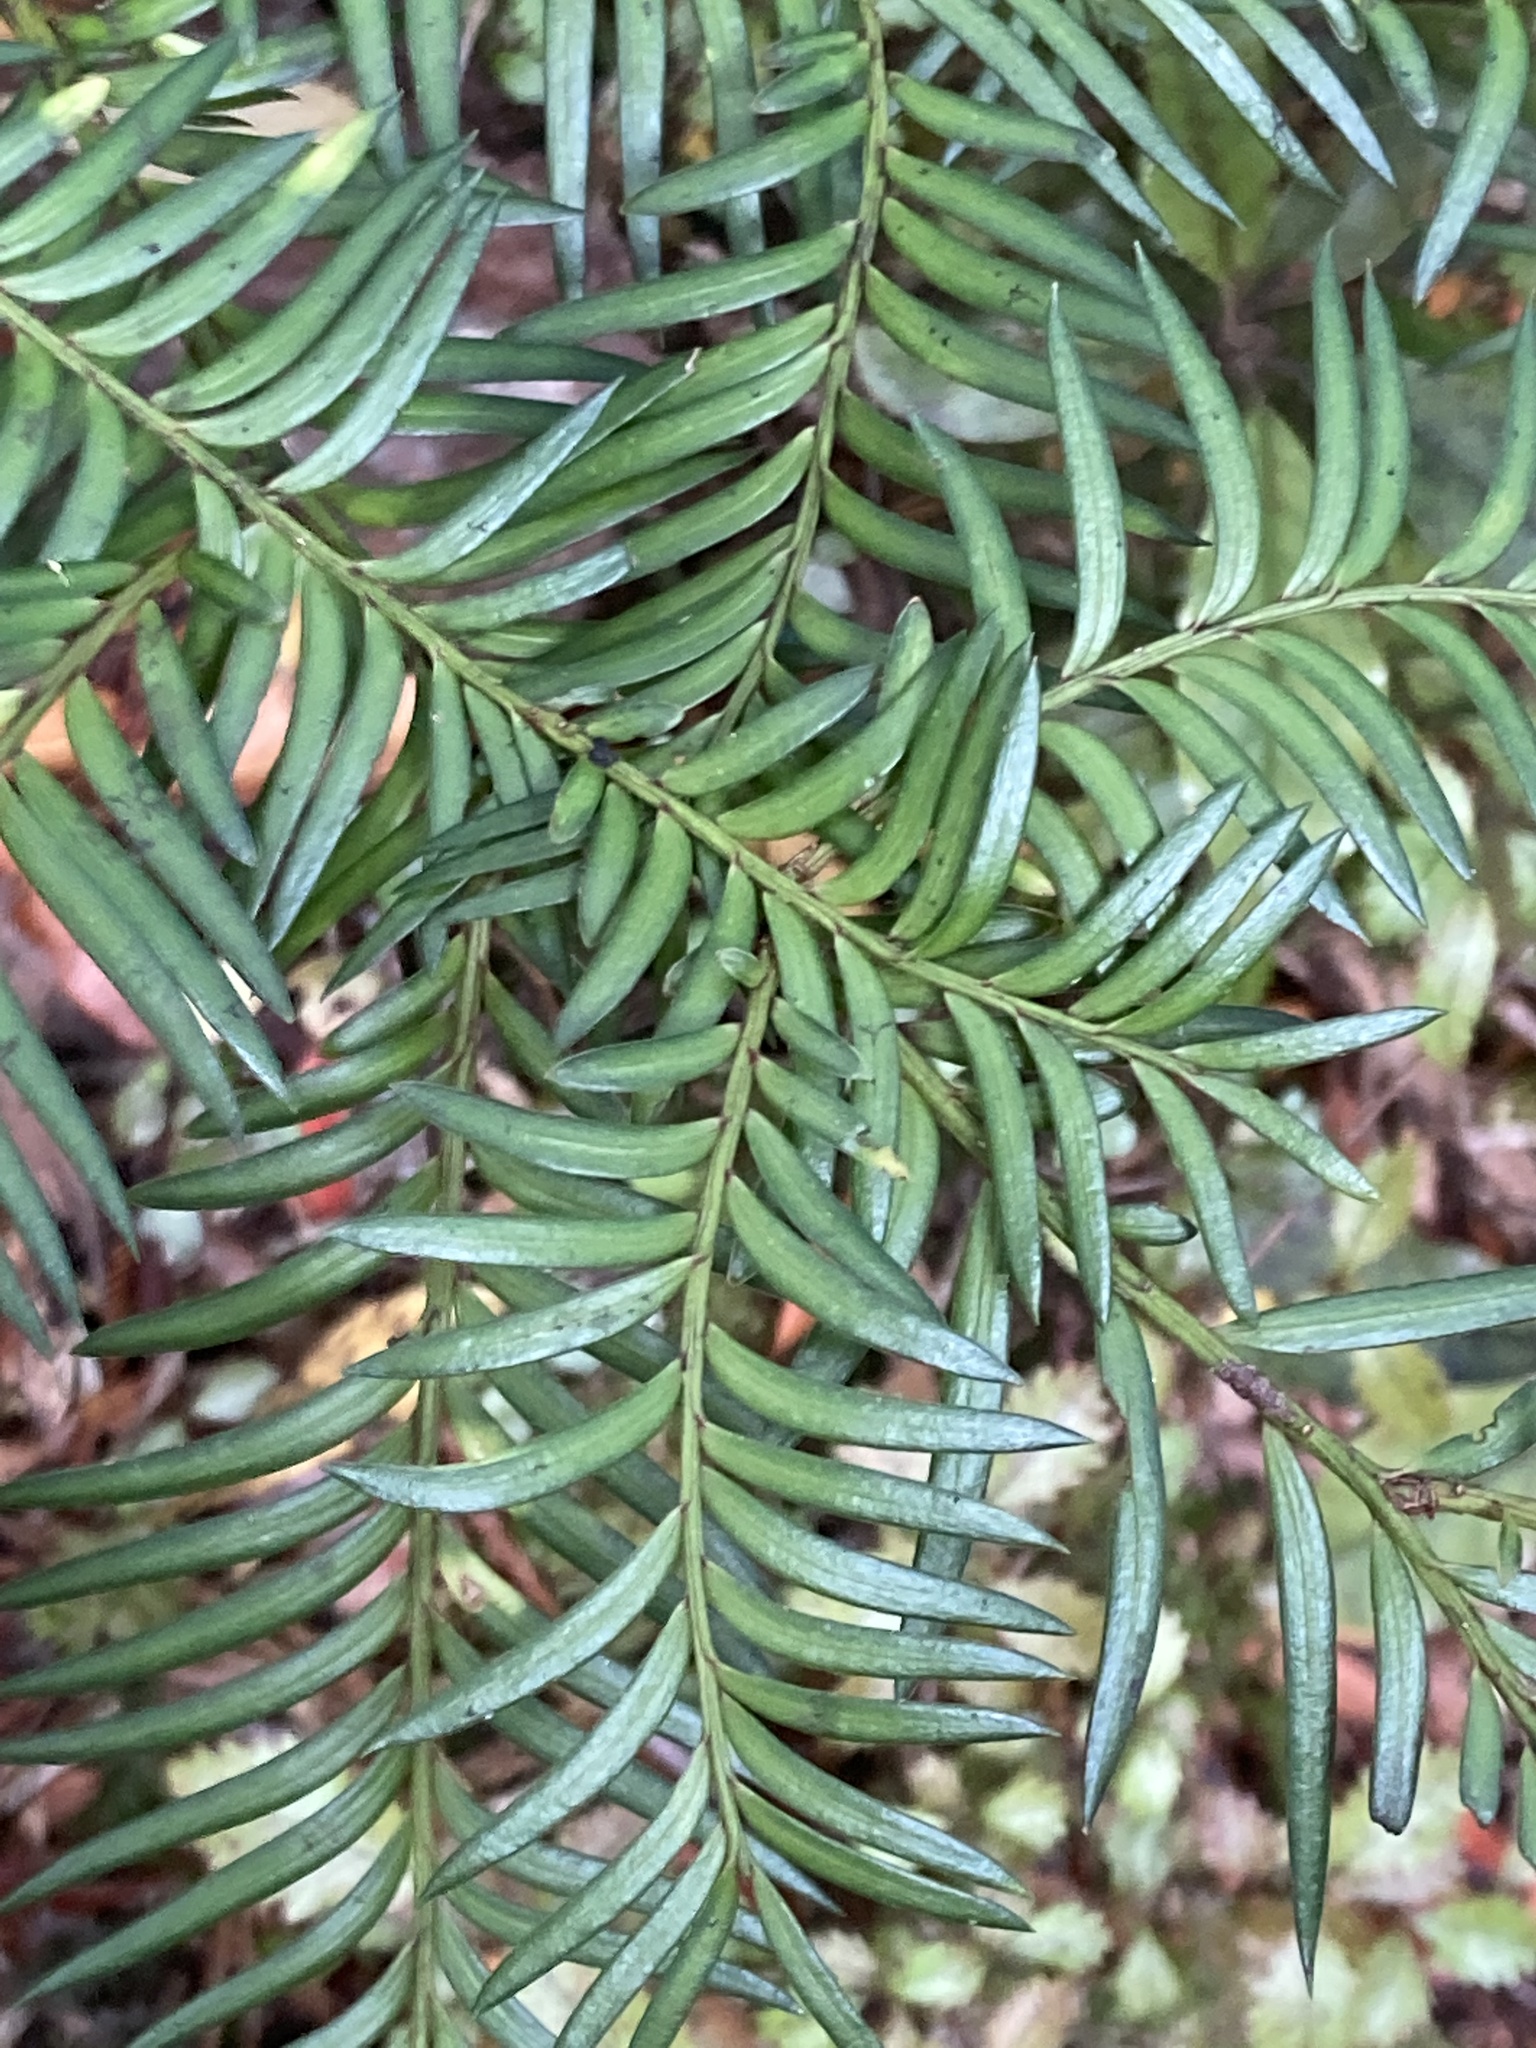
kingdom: Plantae
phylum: Tracheophyta
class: Pinopsida
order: Pinales
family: Podocarpaceae
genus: Prumnopitys
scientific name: Prumnopitys ferruginea
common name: Brown pine
